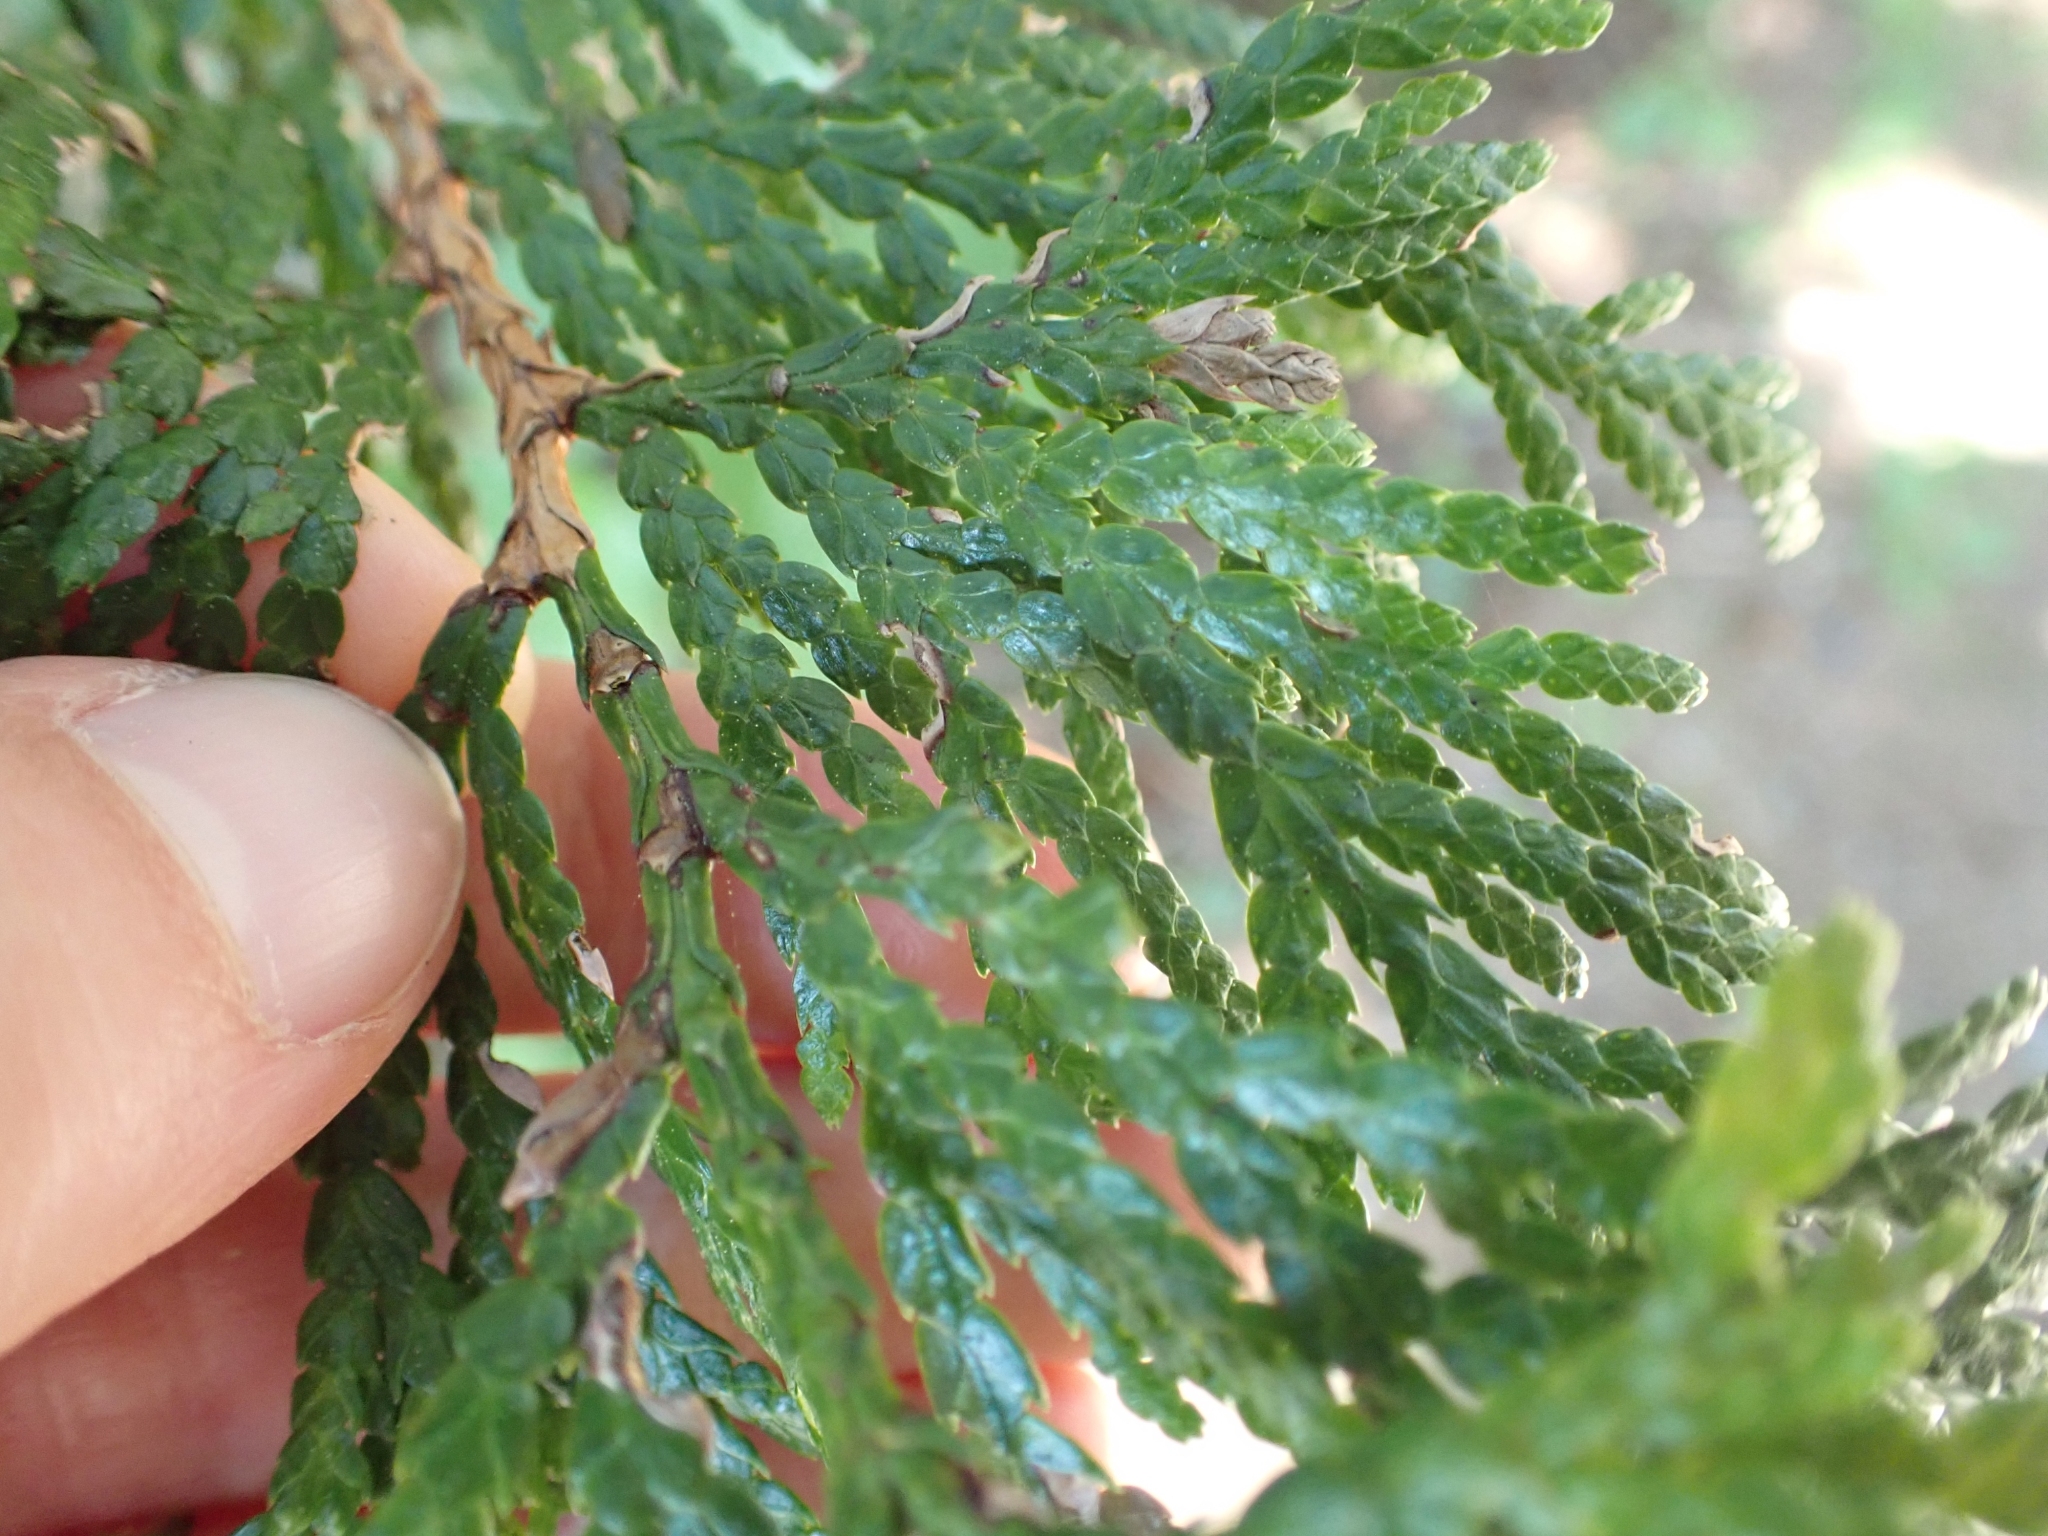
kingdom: Plantae
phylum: Tracheophyta
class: Pinopsida
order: Pinales
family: Cupressaceae
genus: Thuja
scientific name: Thuja plicata
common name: Western red-cedar
